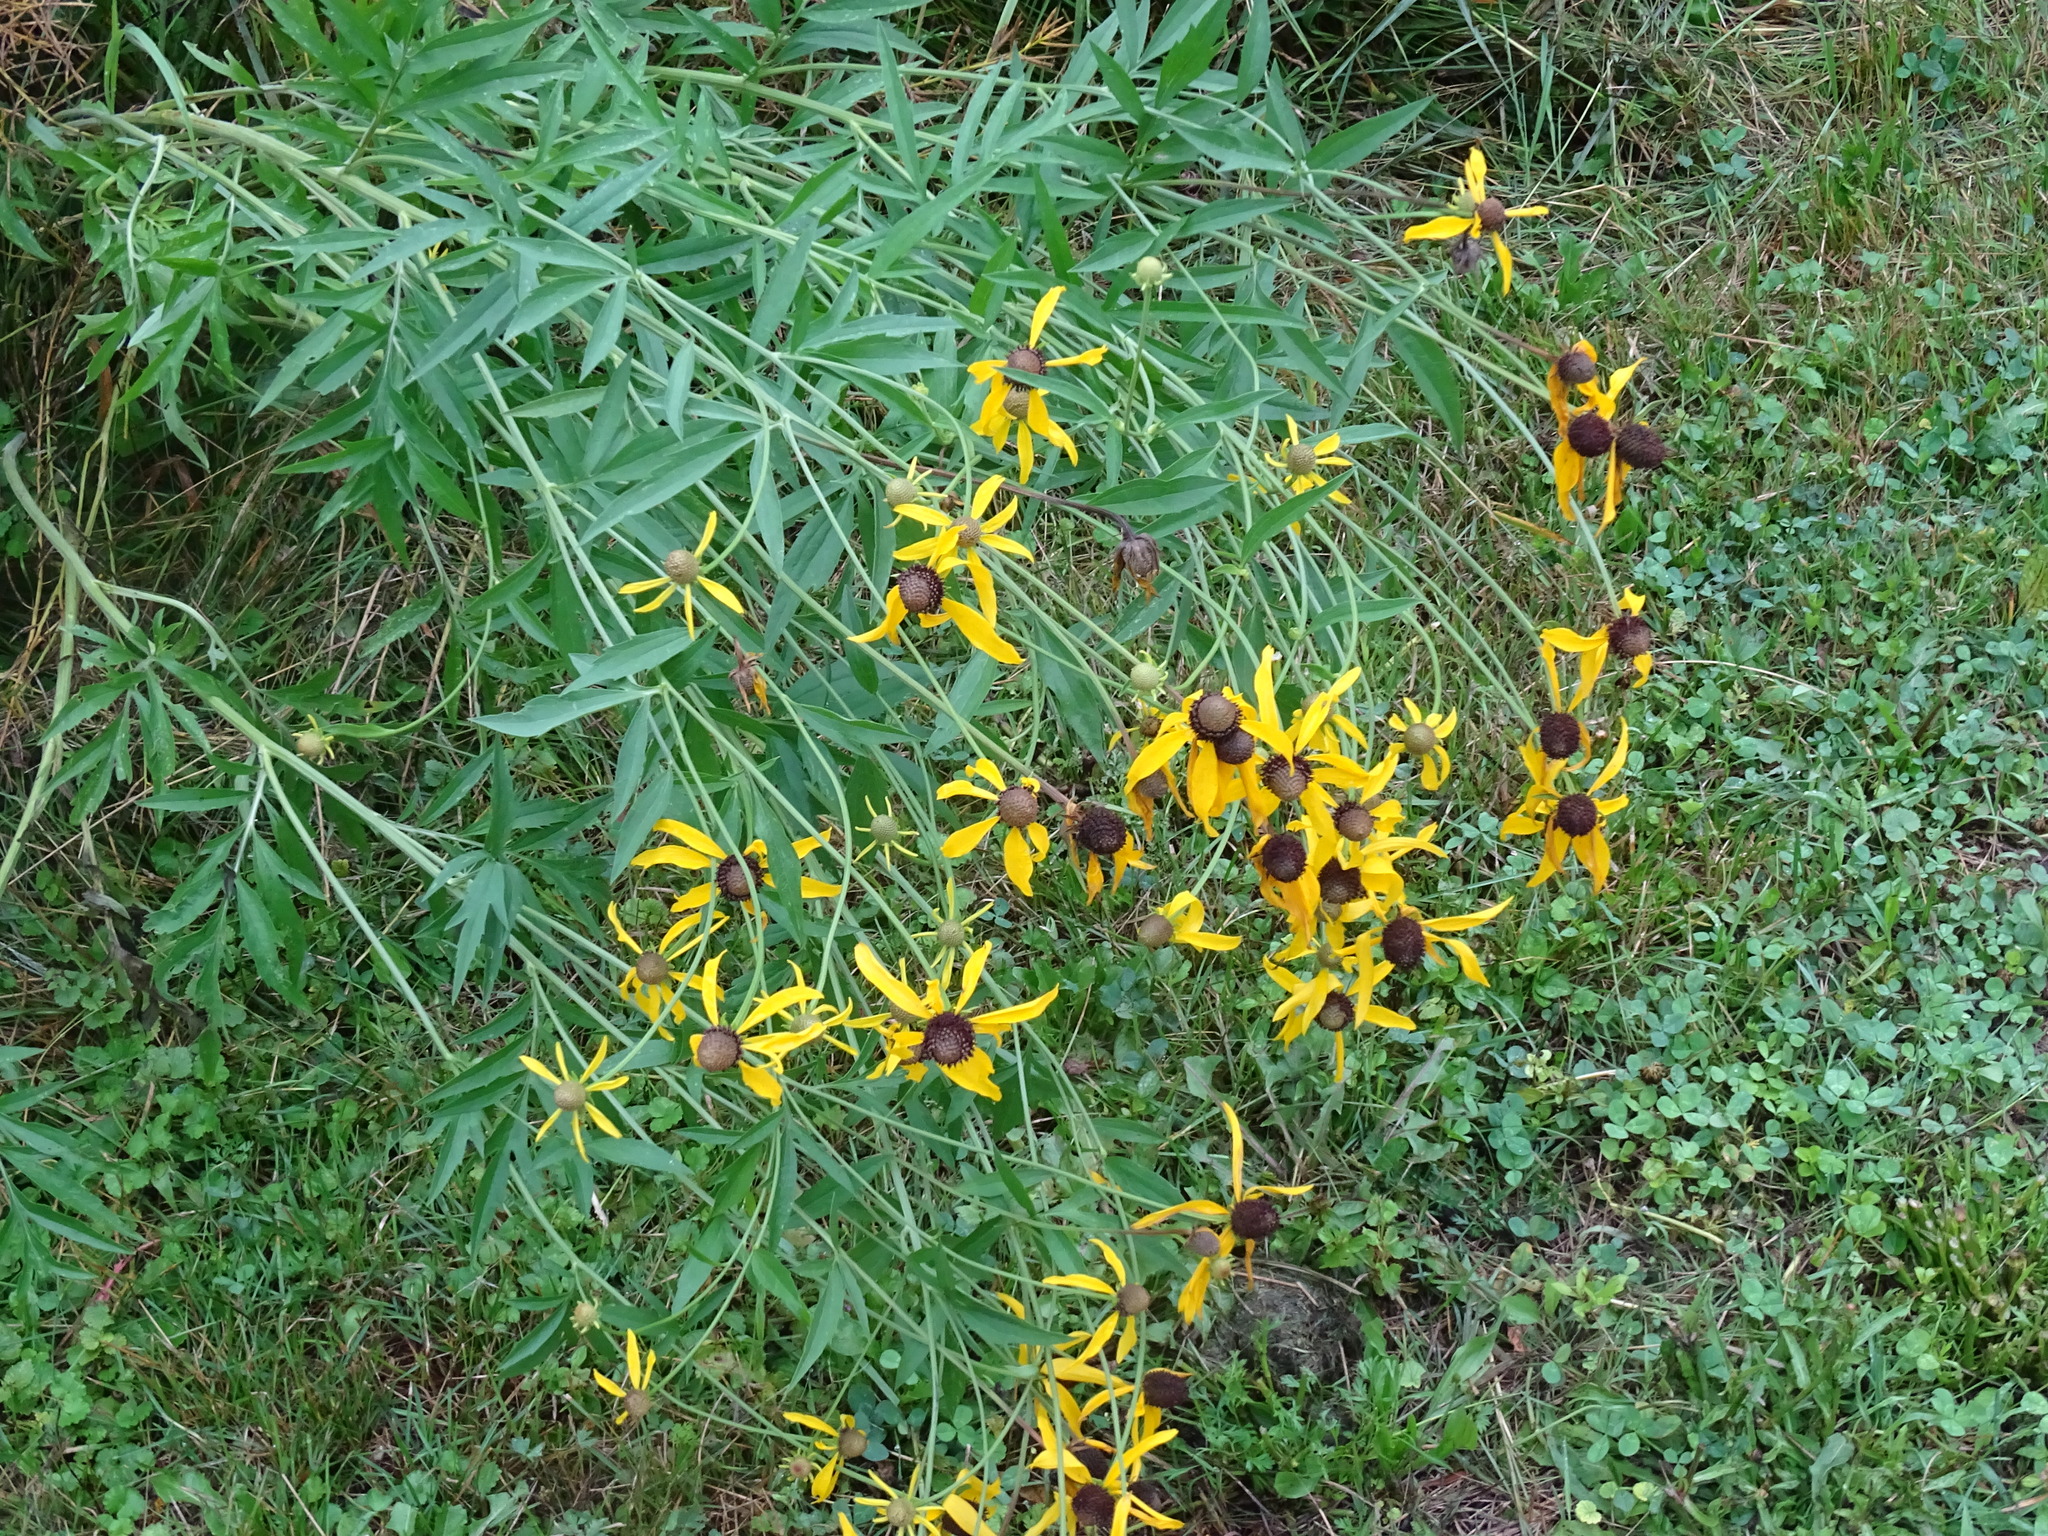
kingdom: Plantae
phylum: Tracheophyta
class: Magnoliopsida
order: Asterales
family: Asteraceae
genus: Ratibida
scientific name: Ratibida pinnata
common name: Drooping prairie-coneflower
